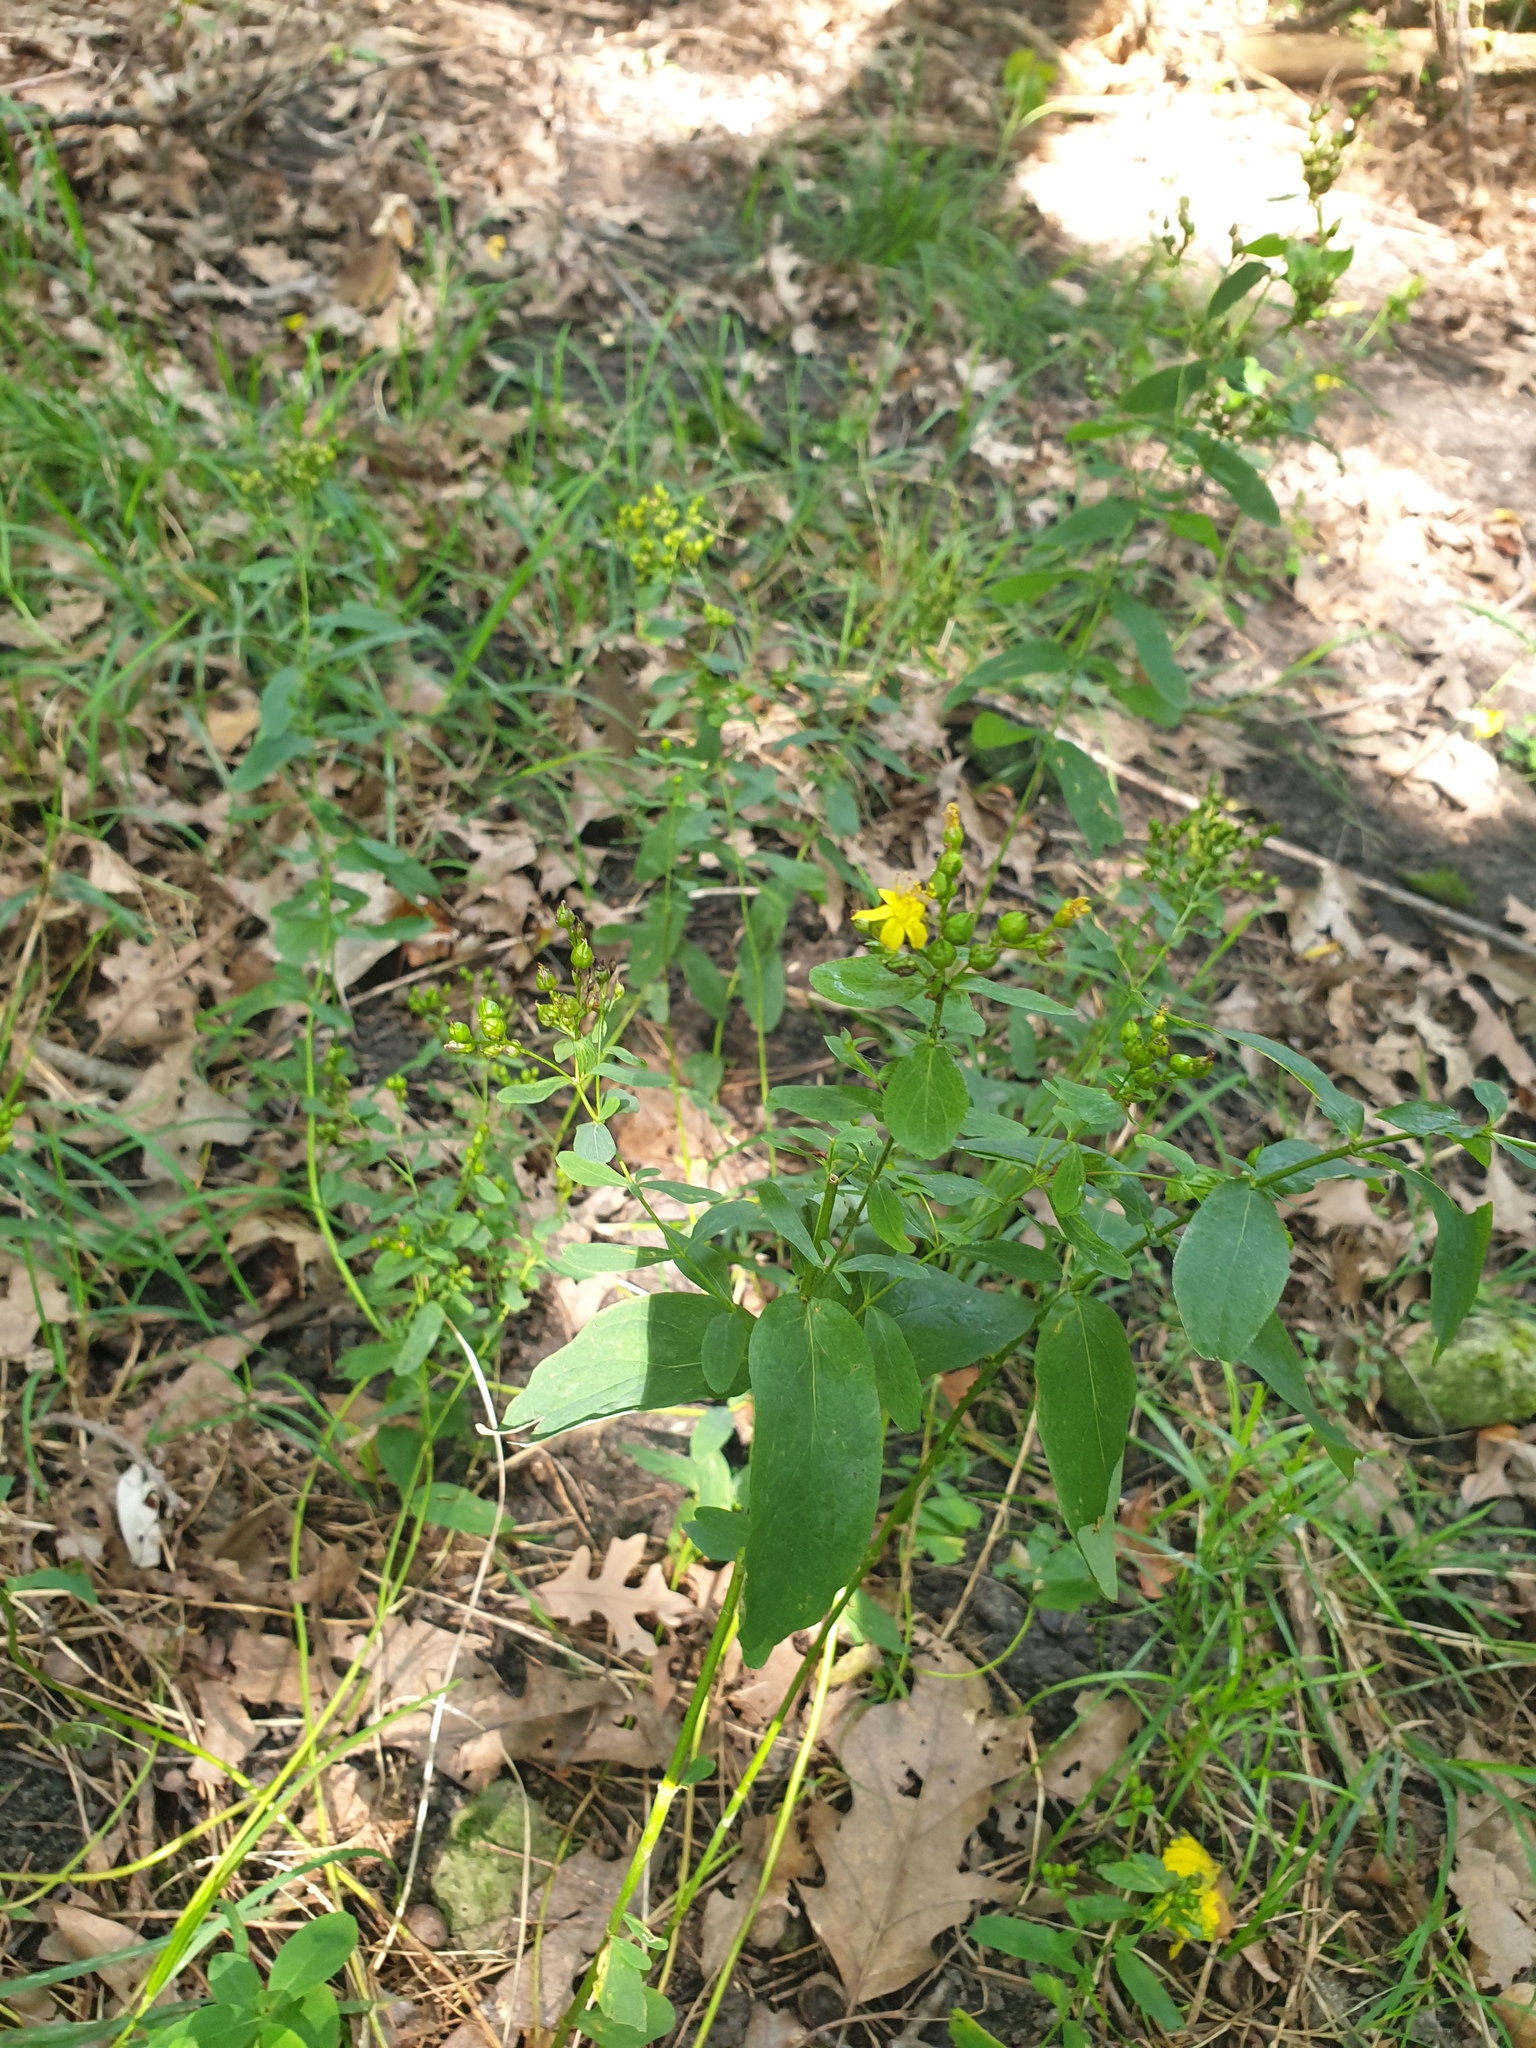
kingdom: Plantae
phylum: Tracheophyta
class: Magnoliopsida
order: Malpighiales
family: Hypericaceae
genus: Hypericum
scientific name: Hypericum punctatum
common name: Spotted st. john's-wort
